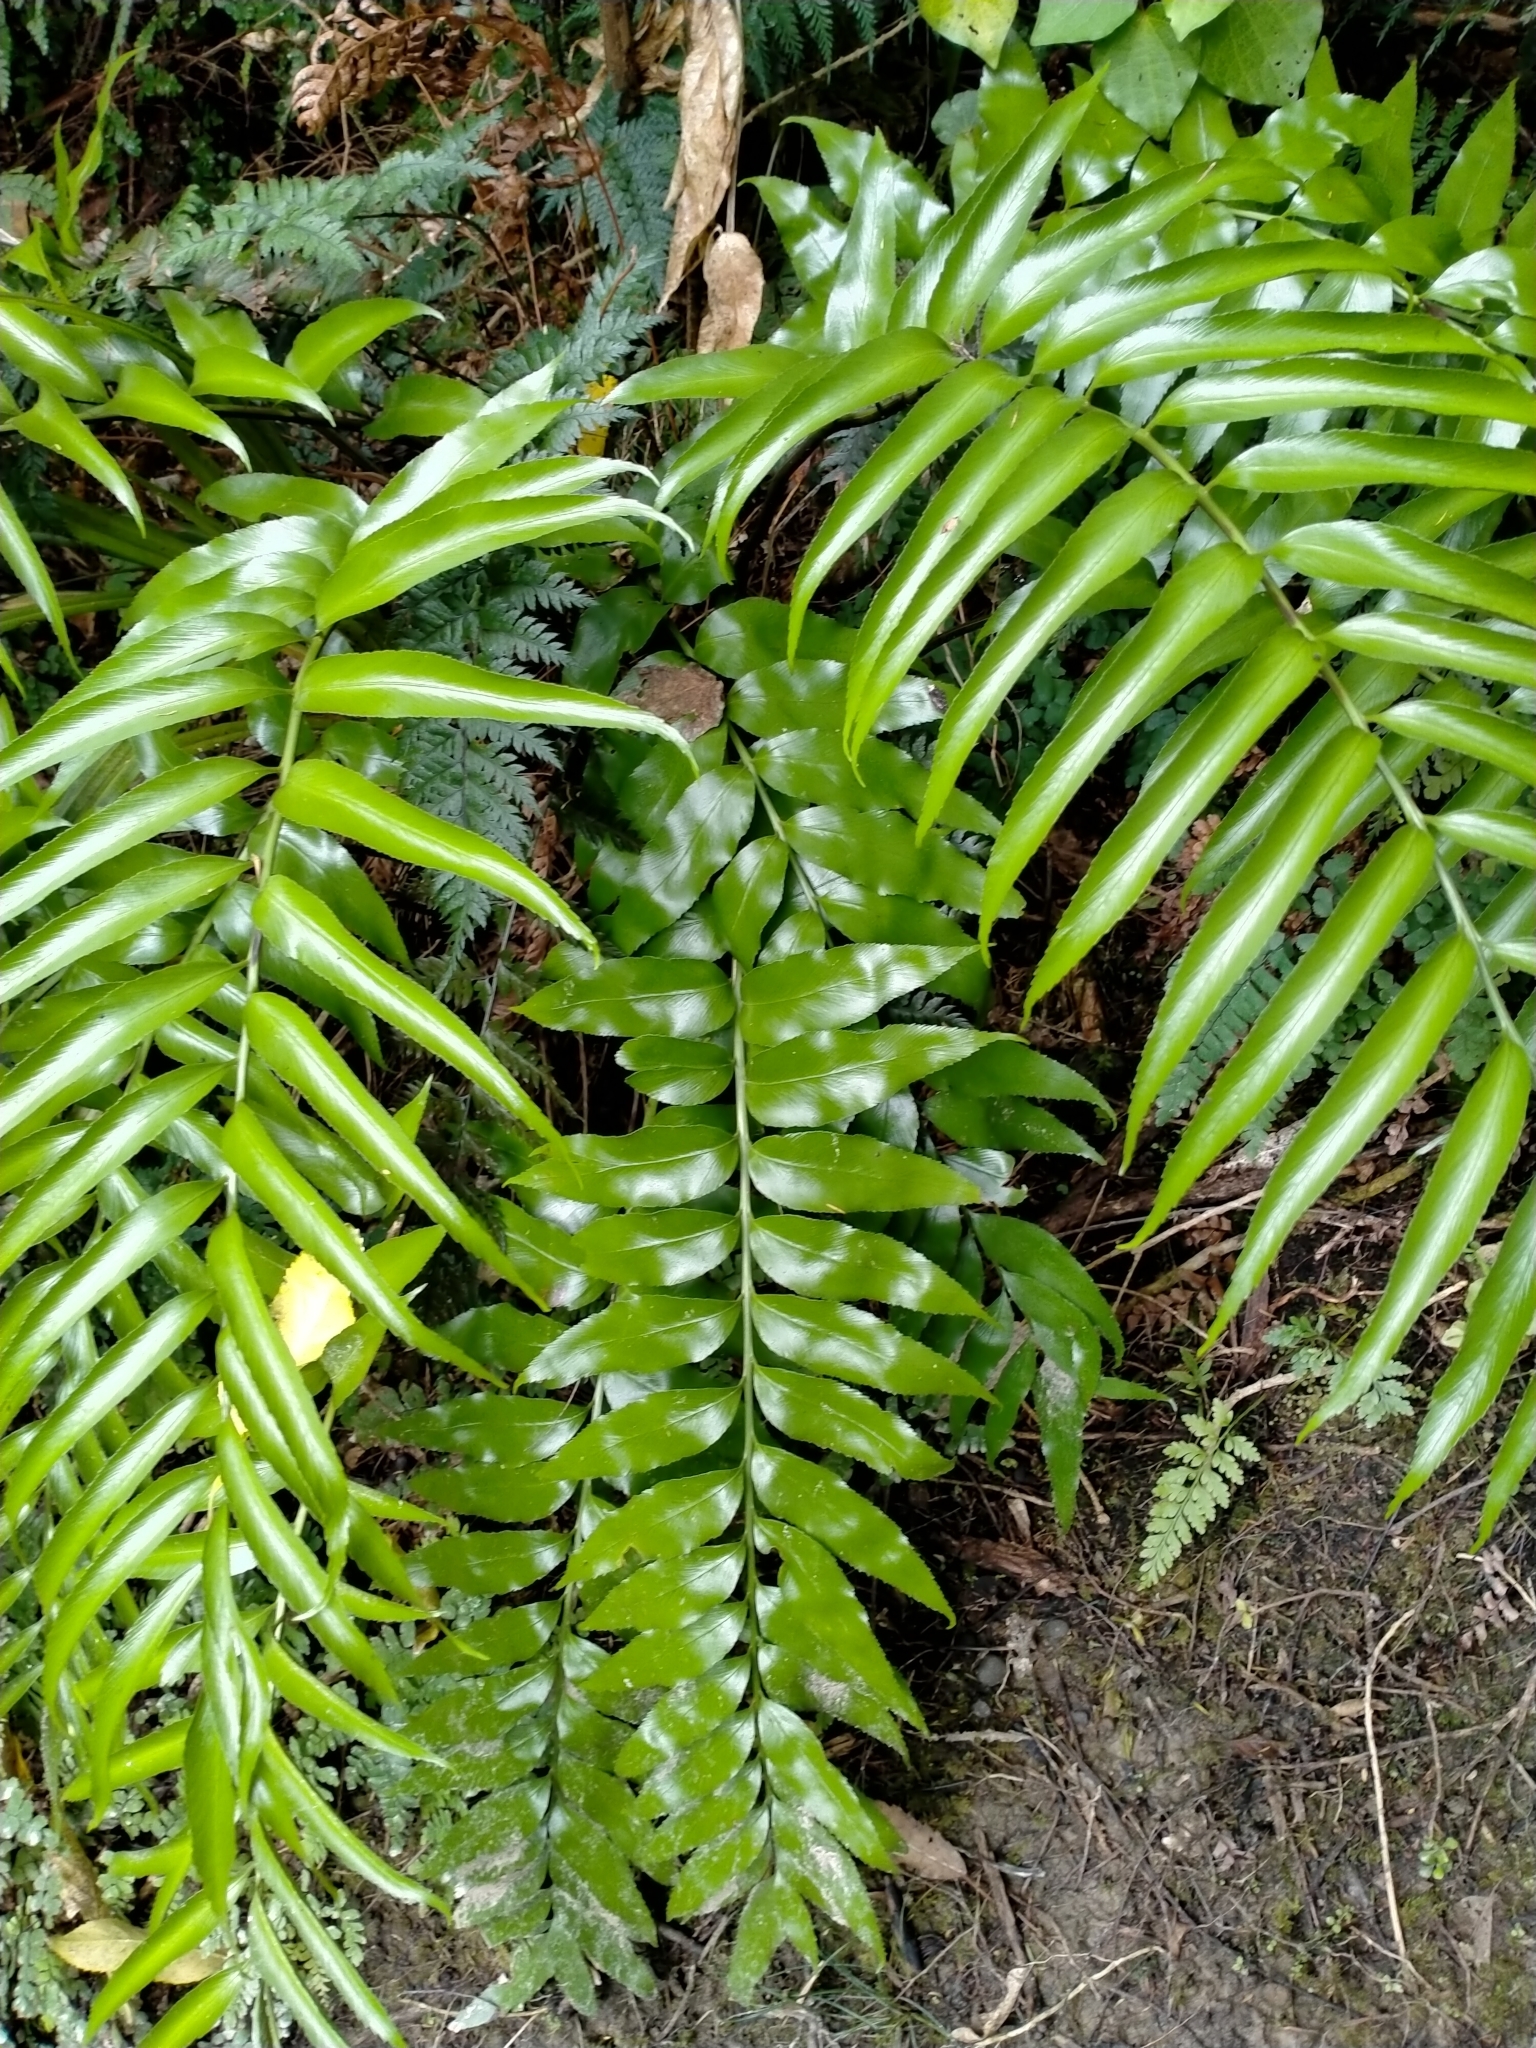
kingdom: Plantae
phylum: Tracheophyta
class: Polypodiopsida
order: Polypodiales
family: Aspleniaceae
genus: Asplenium
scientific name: Asplenium oblongifolium
